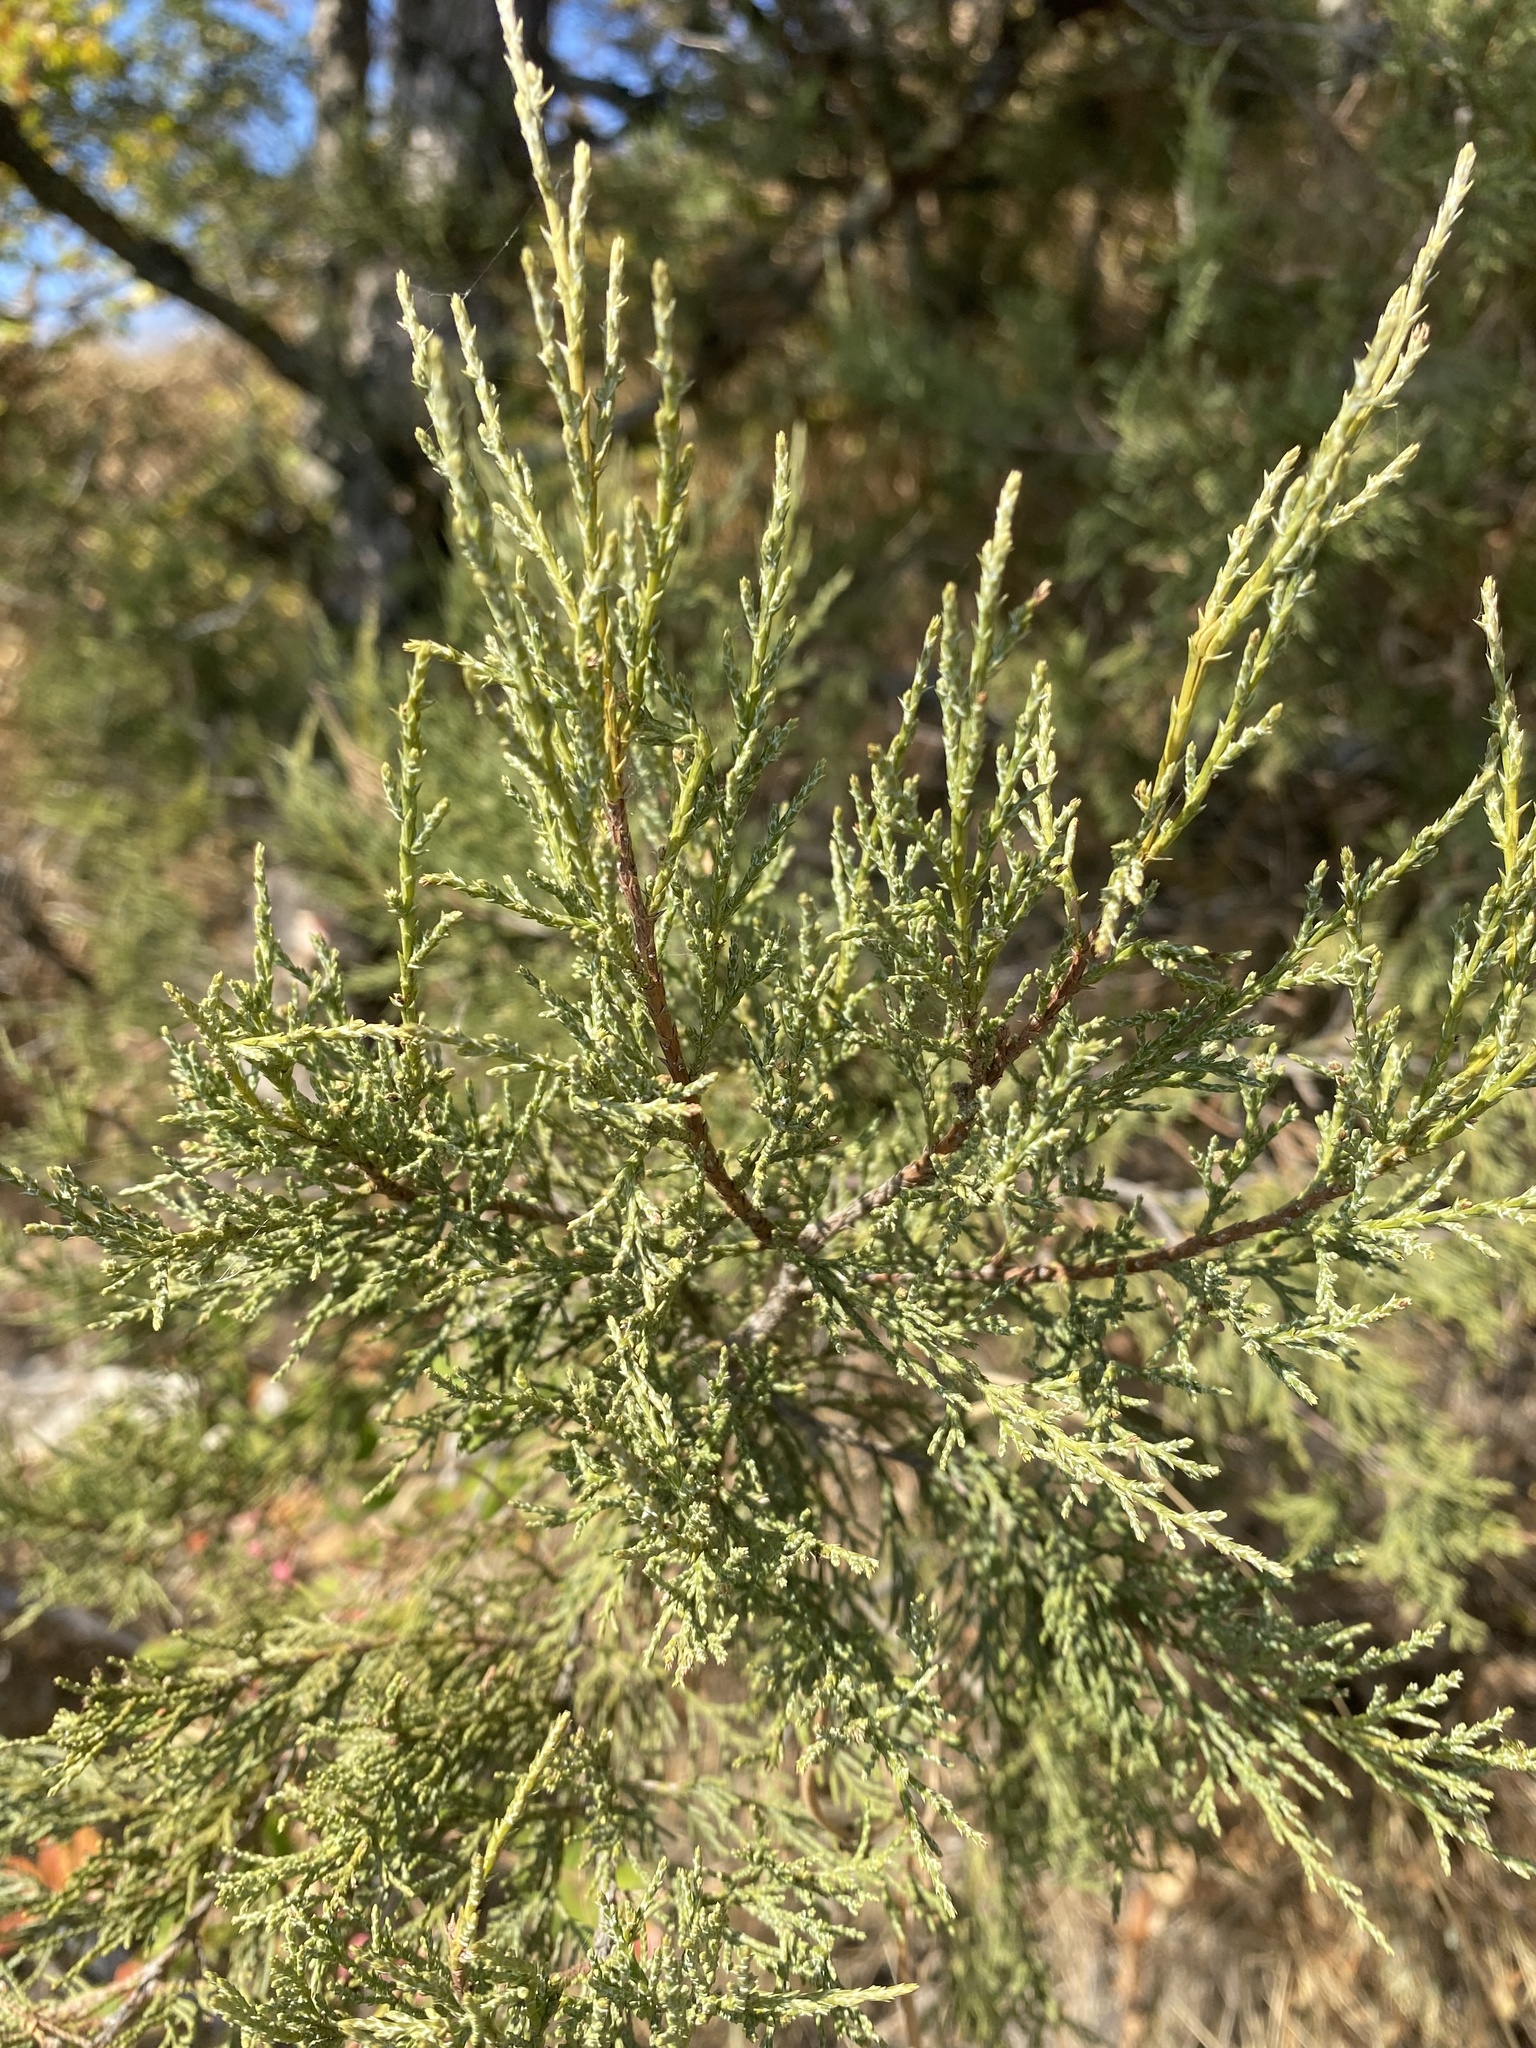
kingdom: Plantae
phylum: Tracheophyta
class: Pinopsida
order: Pinales
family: Cupressaceae
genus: Juniperus
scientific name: Juniperus excelsa
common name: Crimean juniper
